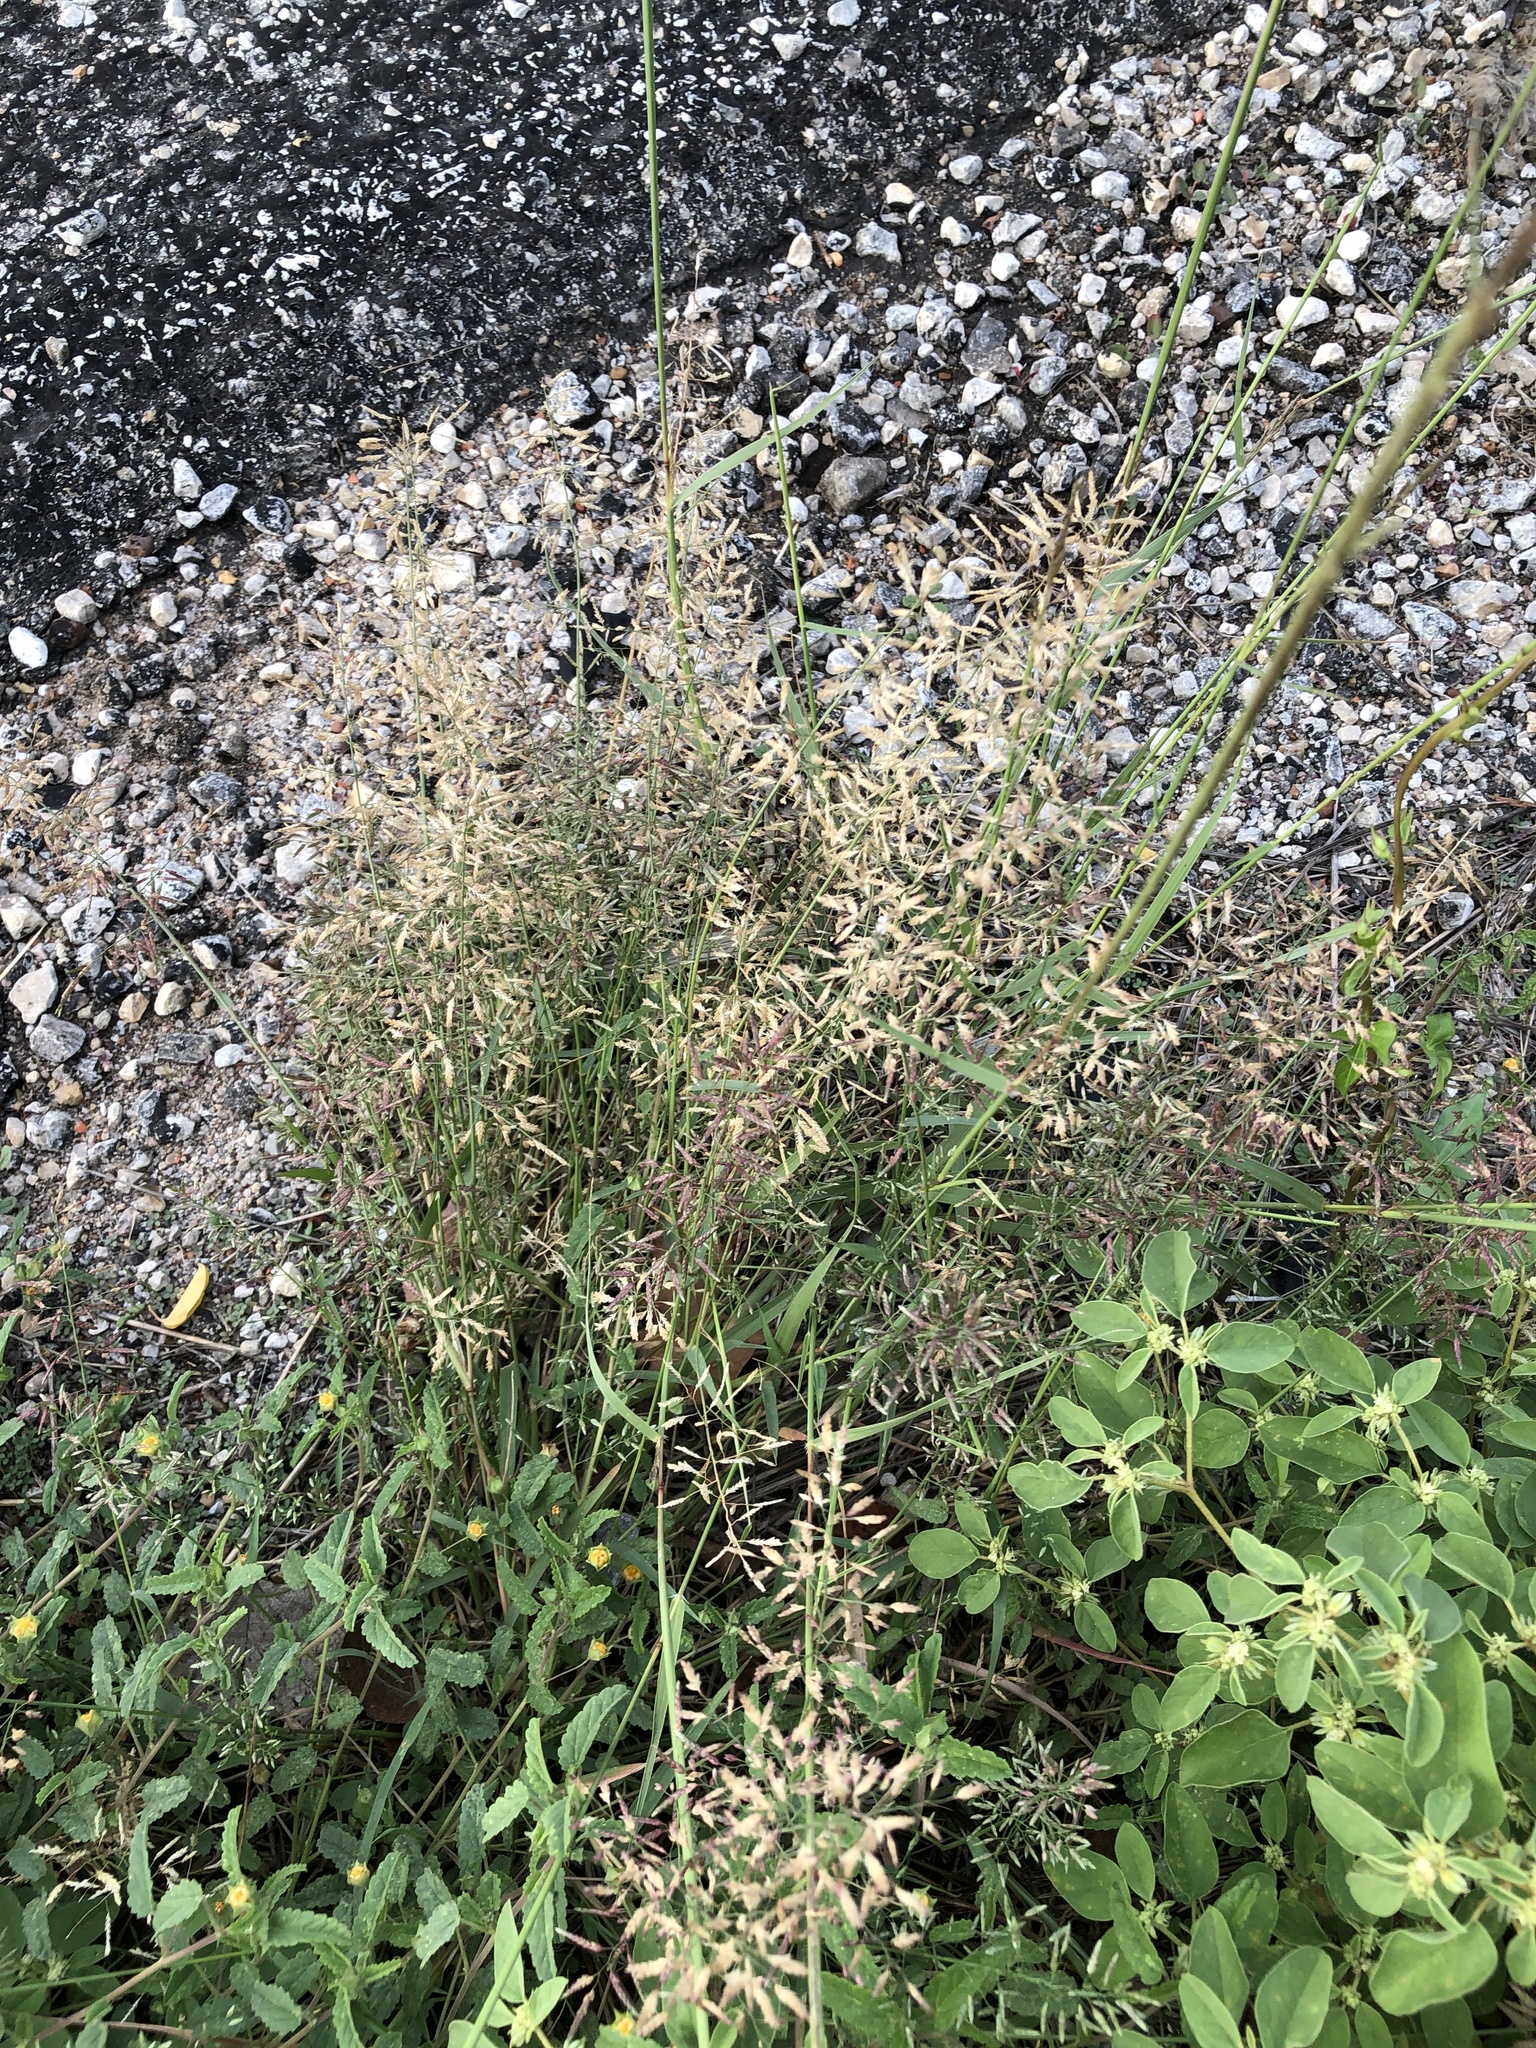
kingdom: Plantae
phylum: Tracheophyta
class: Liliopsida
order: Poales
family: Poaceae
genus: Eragrostis
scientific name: Eragrostis cilianensis
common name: Stinkgrass
